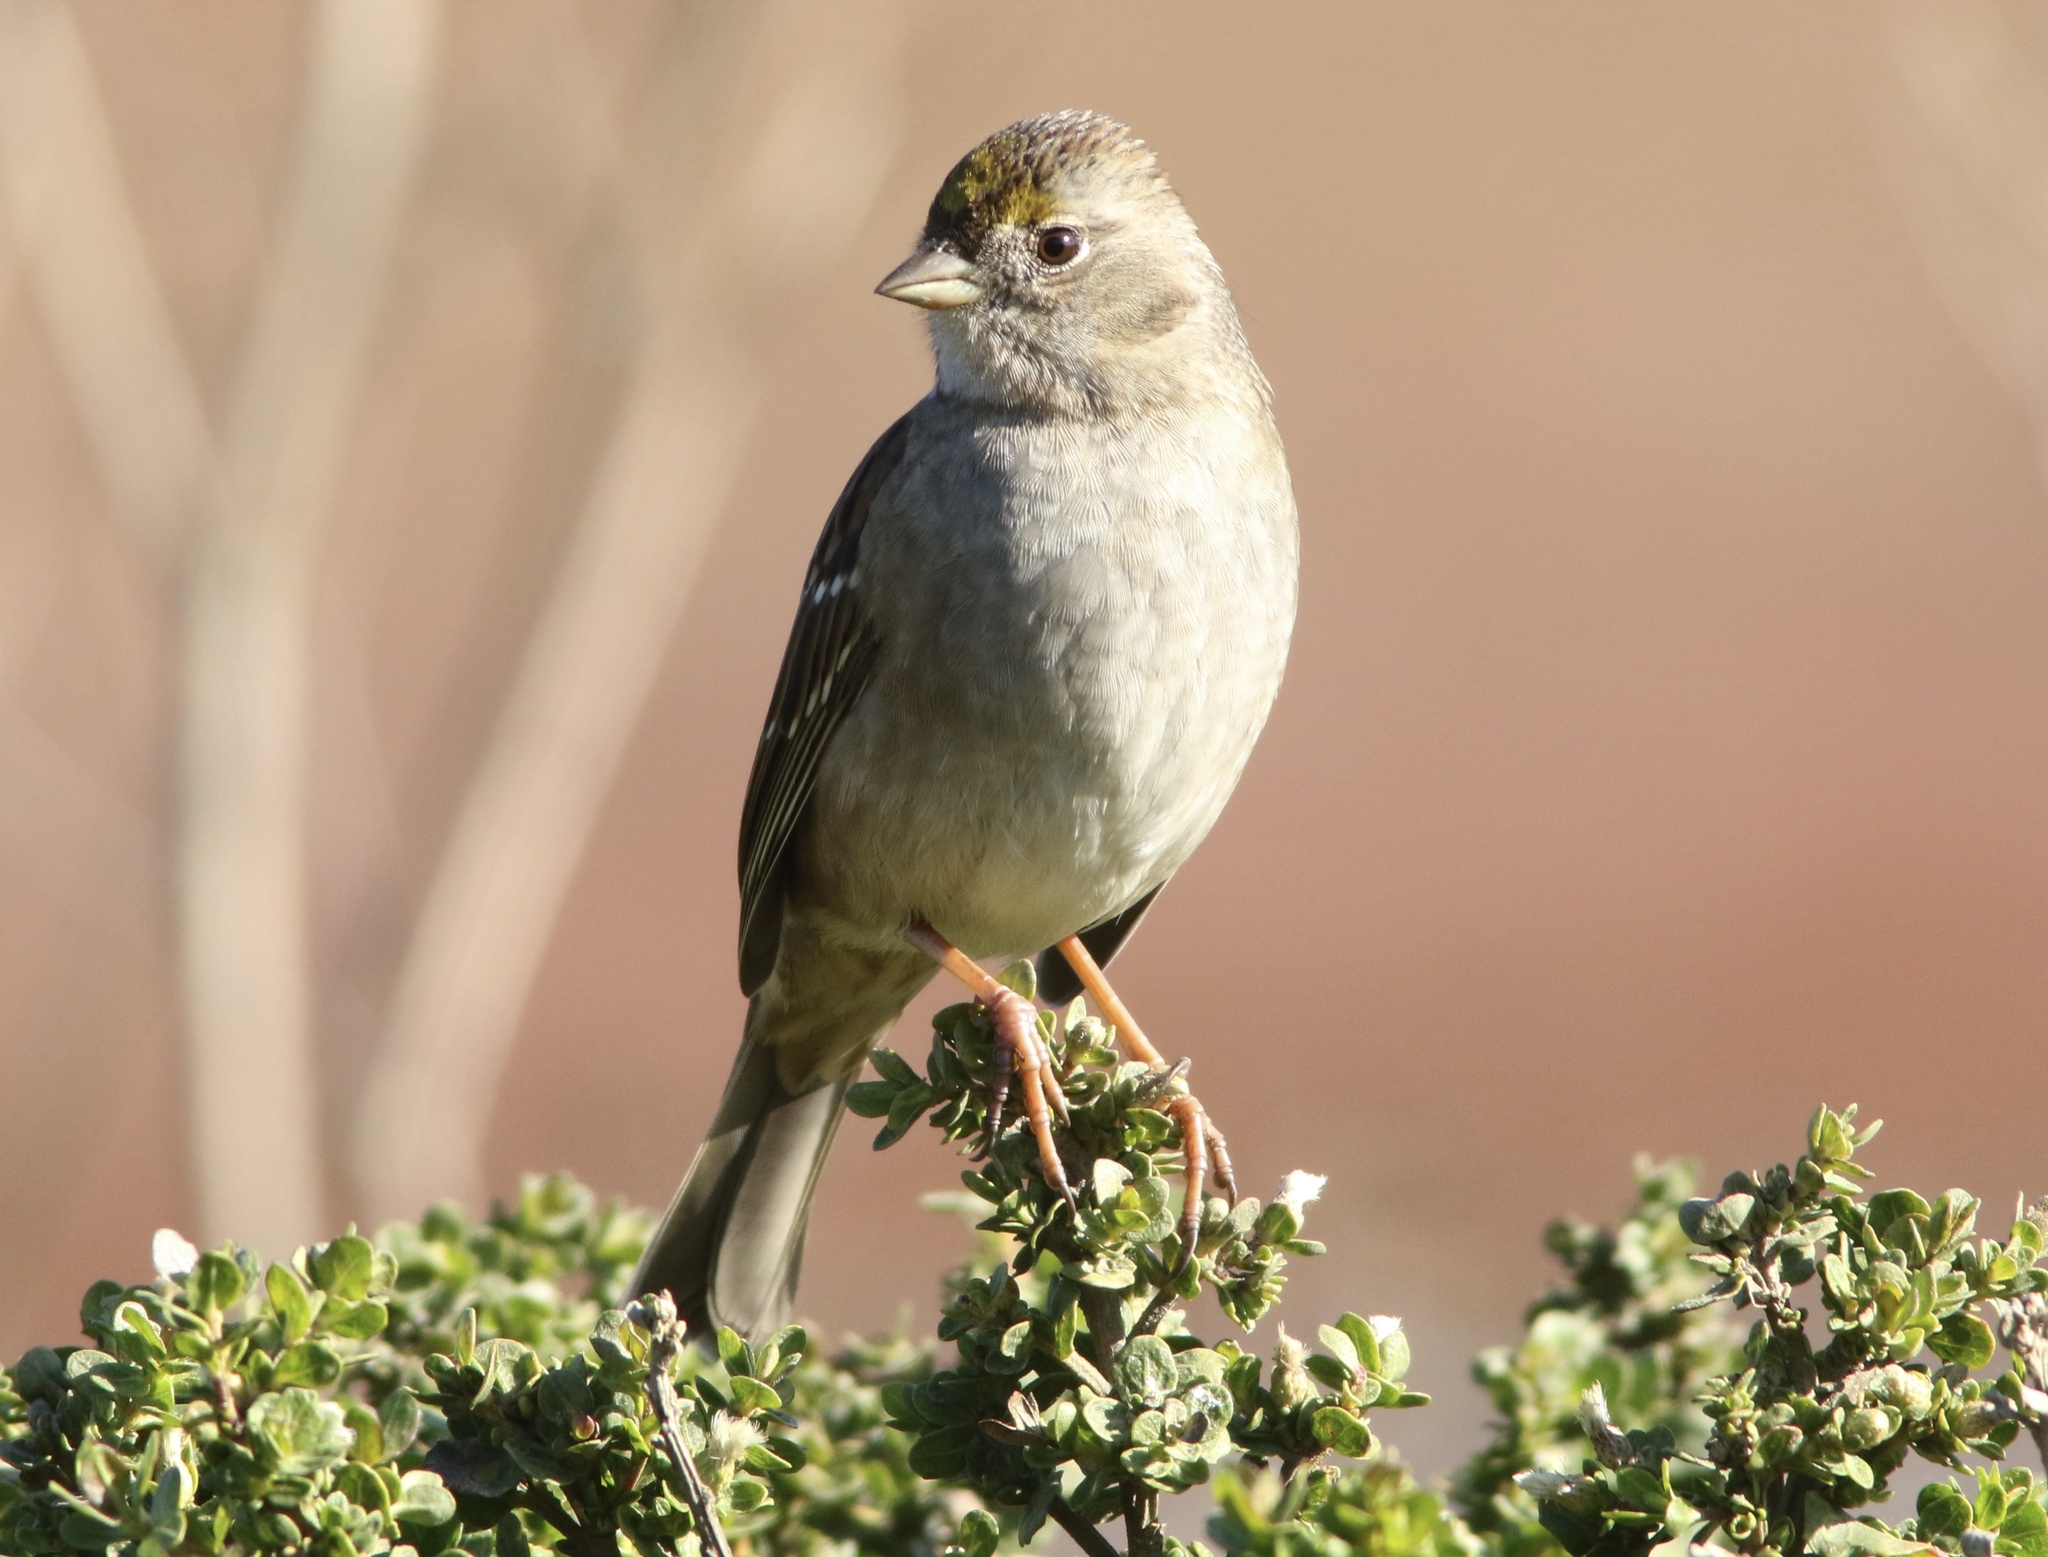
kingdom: Animalia
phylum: Chordata
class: Aves
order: Passeriformes
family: Passerellidae
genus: Zonotrichia
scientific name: Zonotrichia atricapilla
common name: Golden-crowned sparrow
